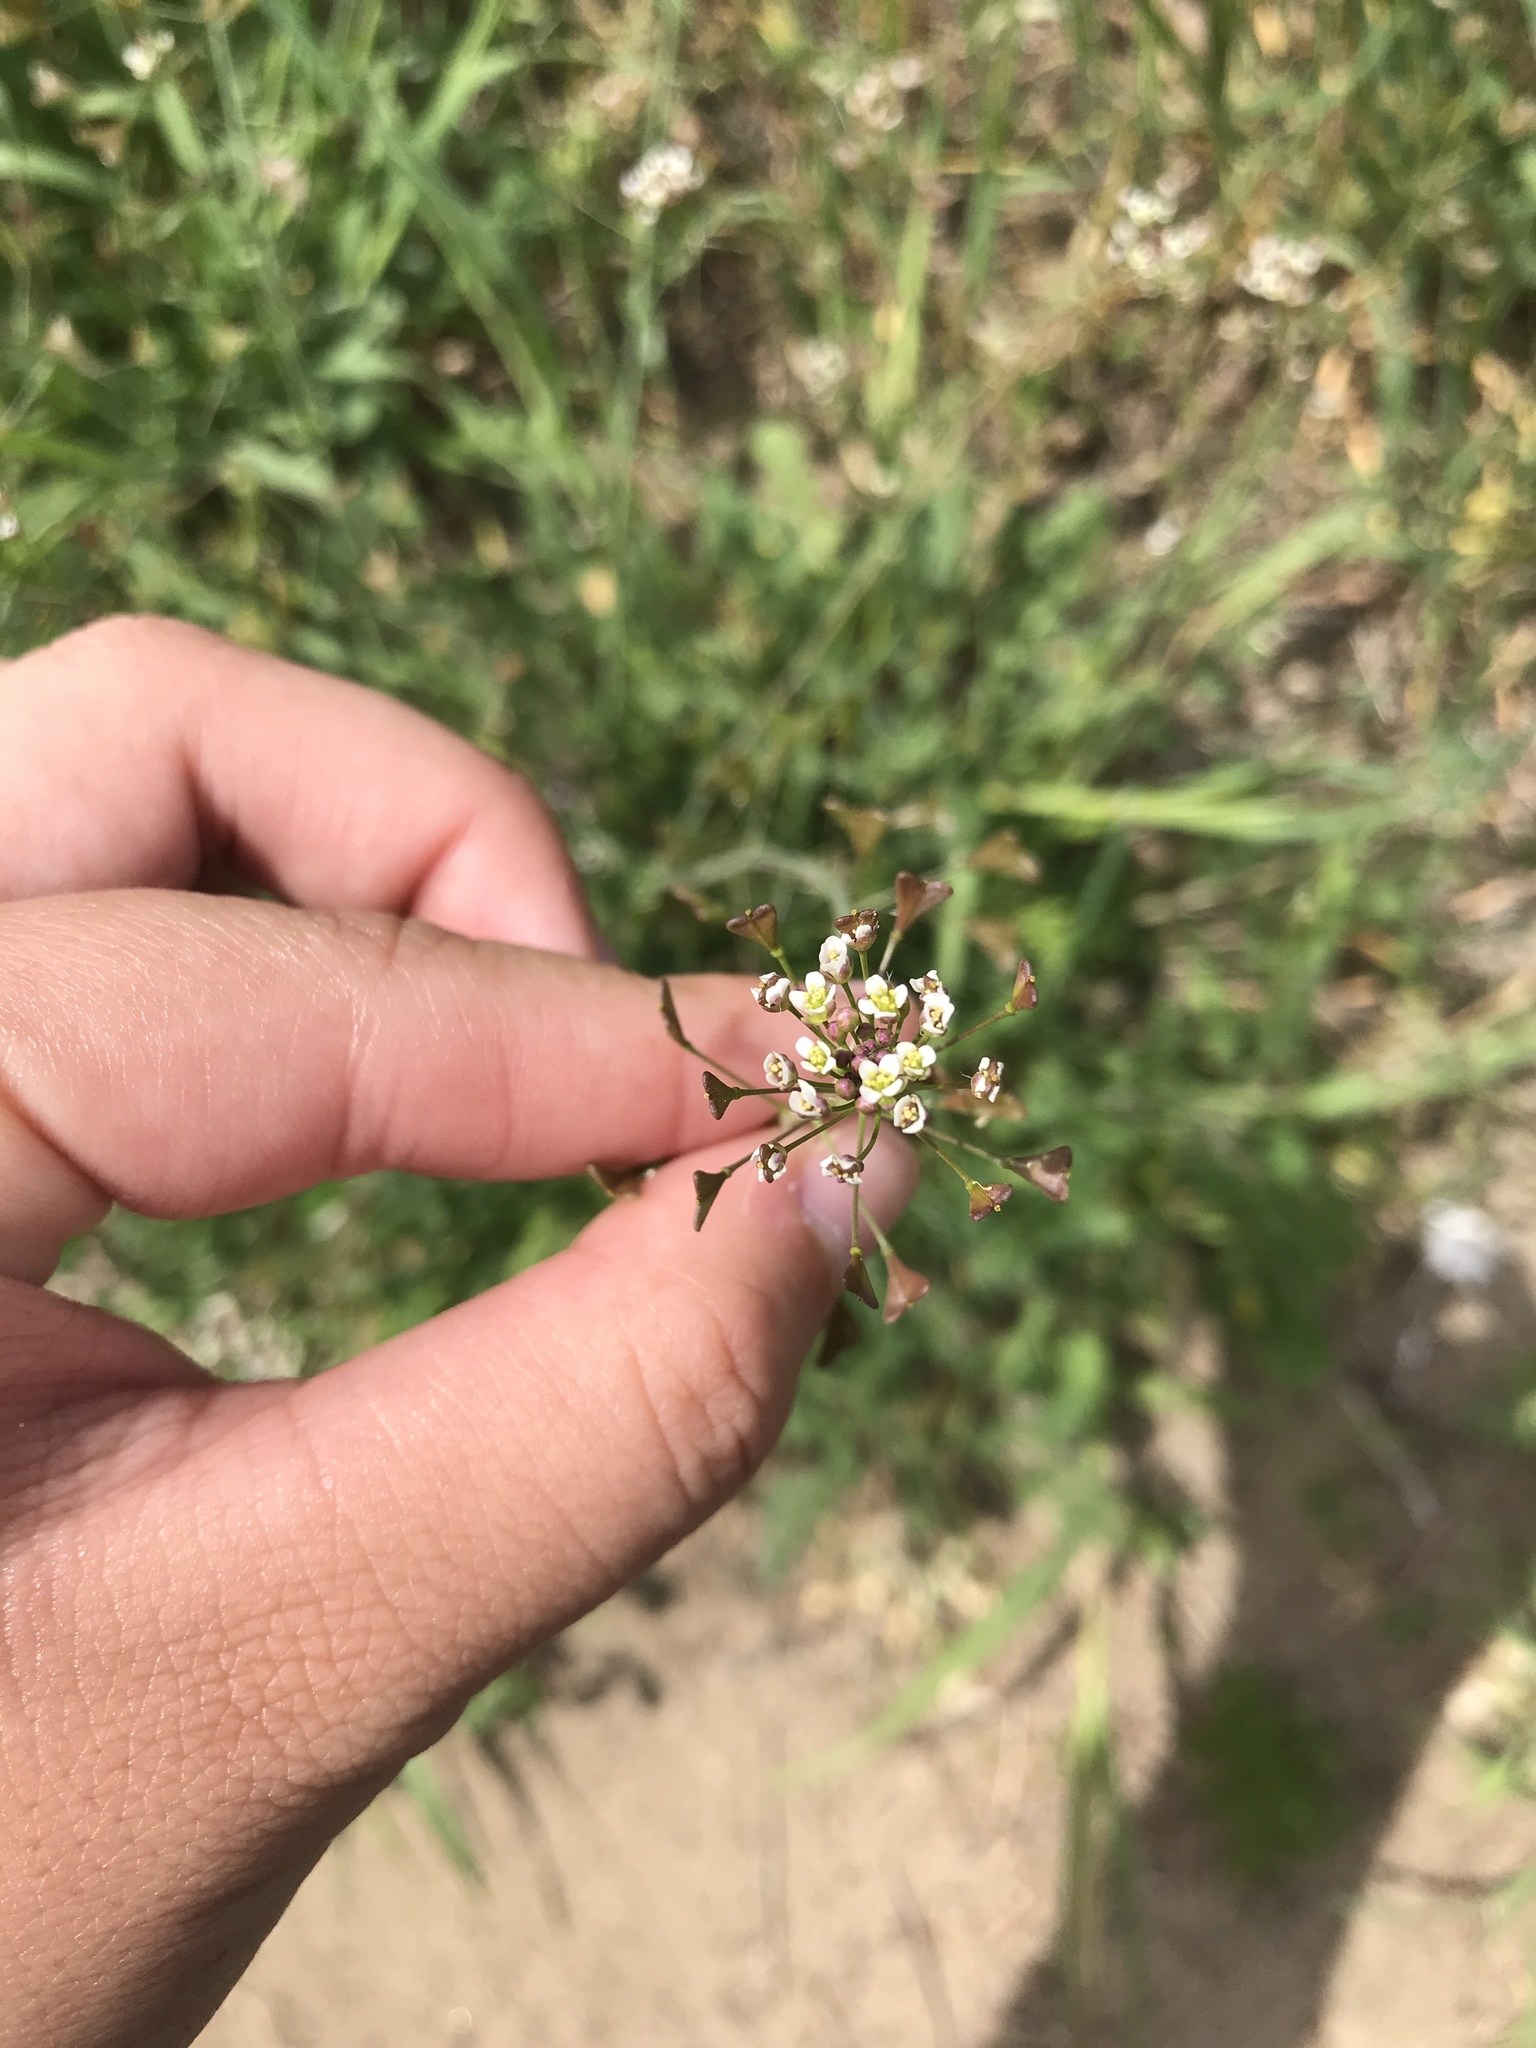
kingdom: Plantae
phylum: Tracheophyta
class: Magnoliopsida
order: Brassicales
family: Brassicaceae
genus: Capsella
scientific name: Capsella bursa-pastoris
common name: Shepherd's purse
